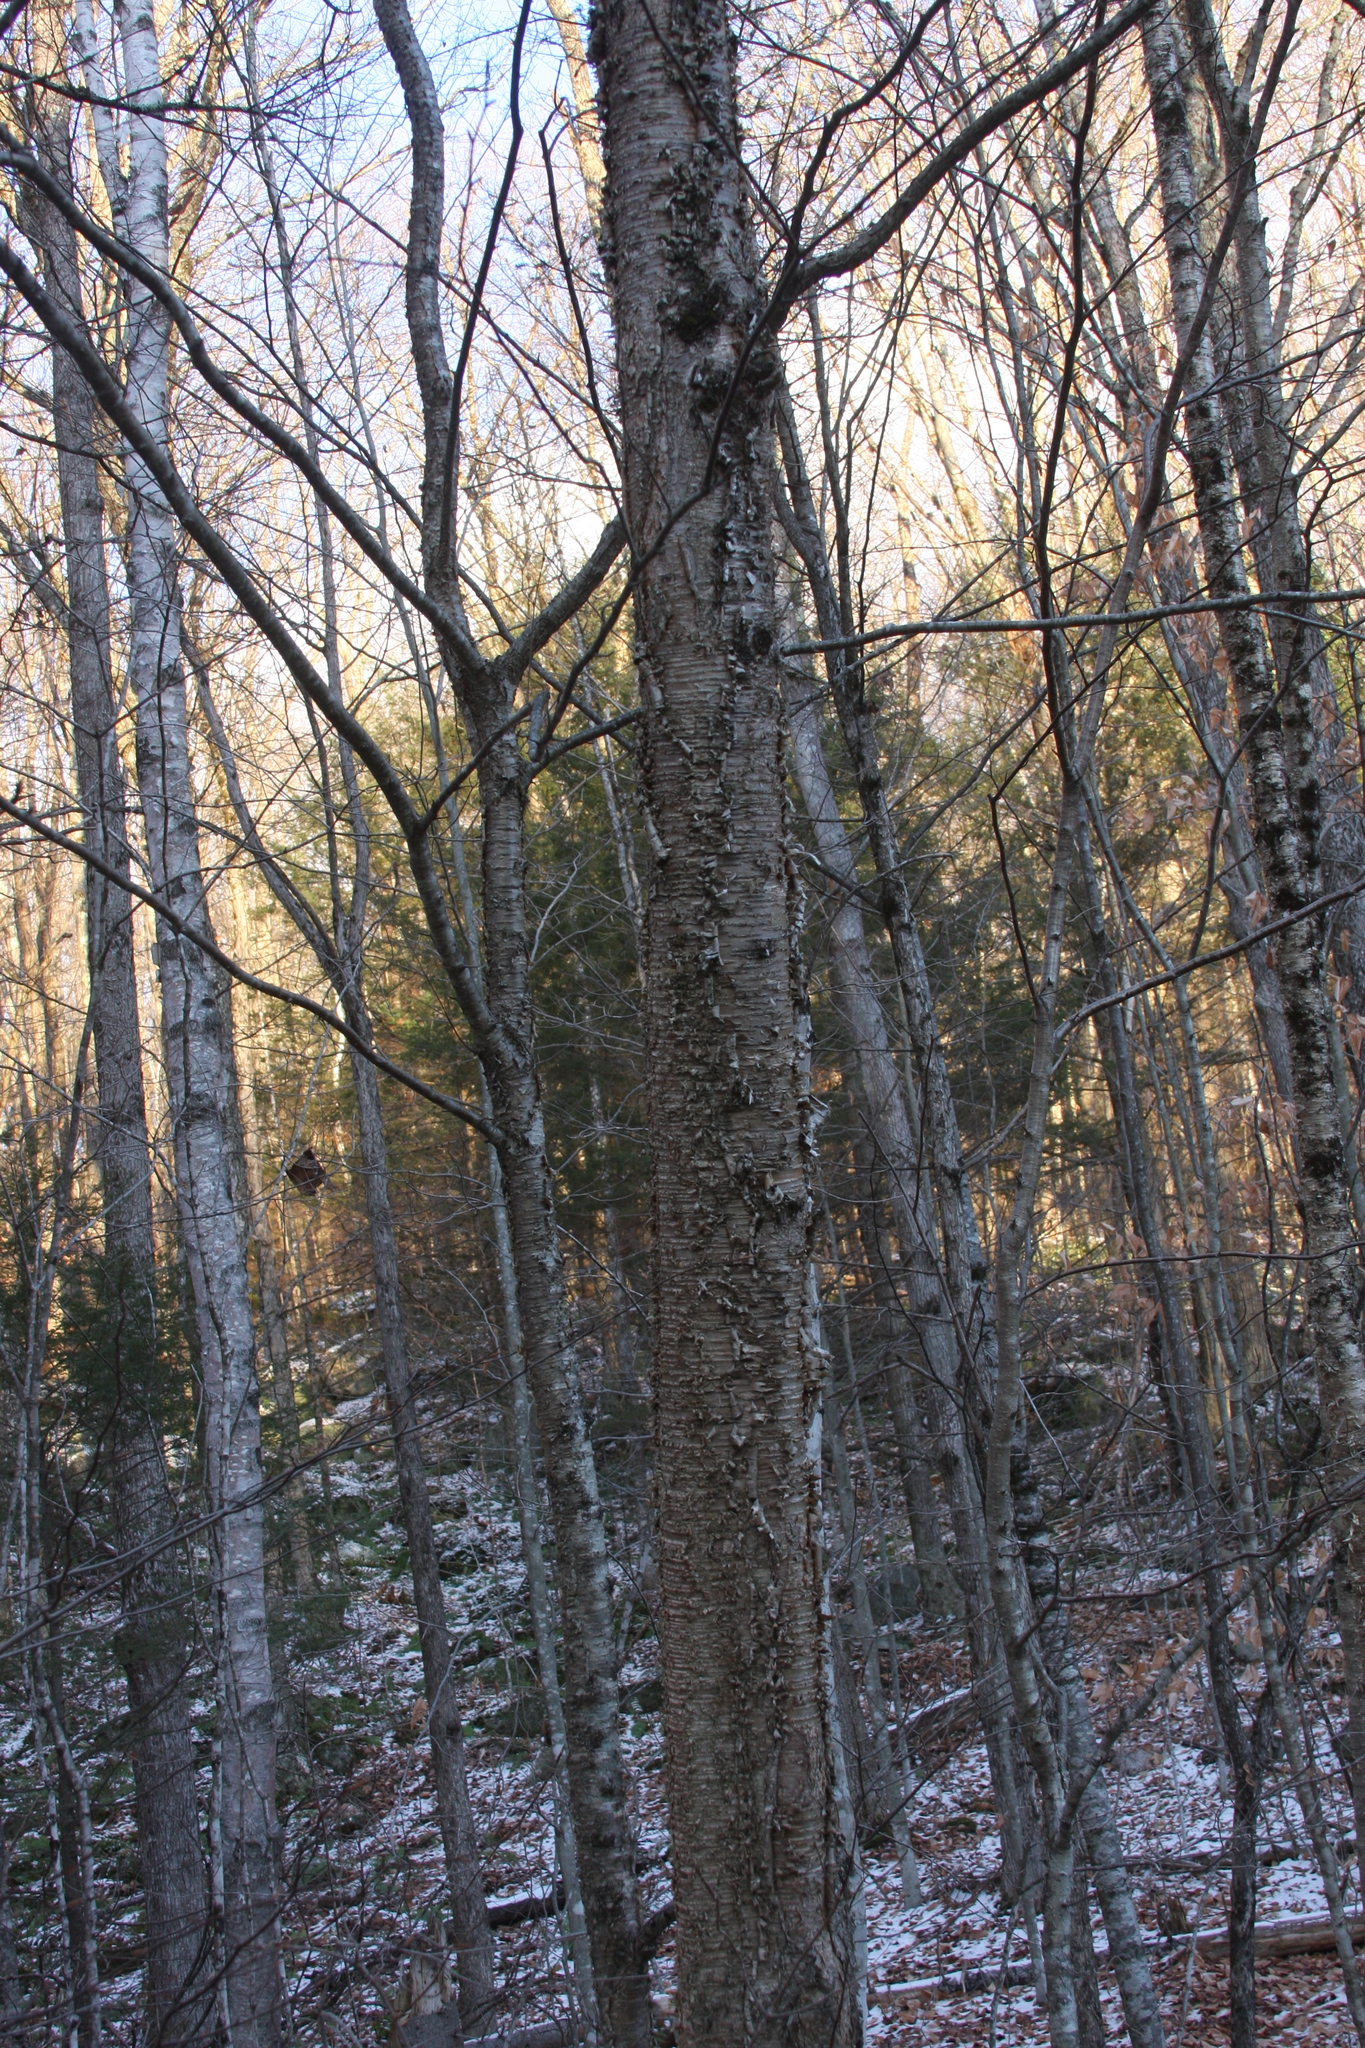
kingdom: Plantae
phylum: Tracheophyta
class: Magnoliopsida
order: Fagales
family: Betulaceae
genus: Betula
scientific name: Betula alleghaniensis
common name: Yellow birch
